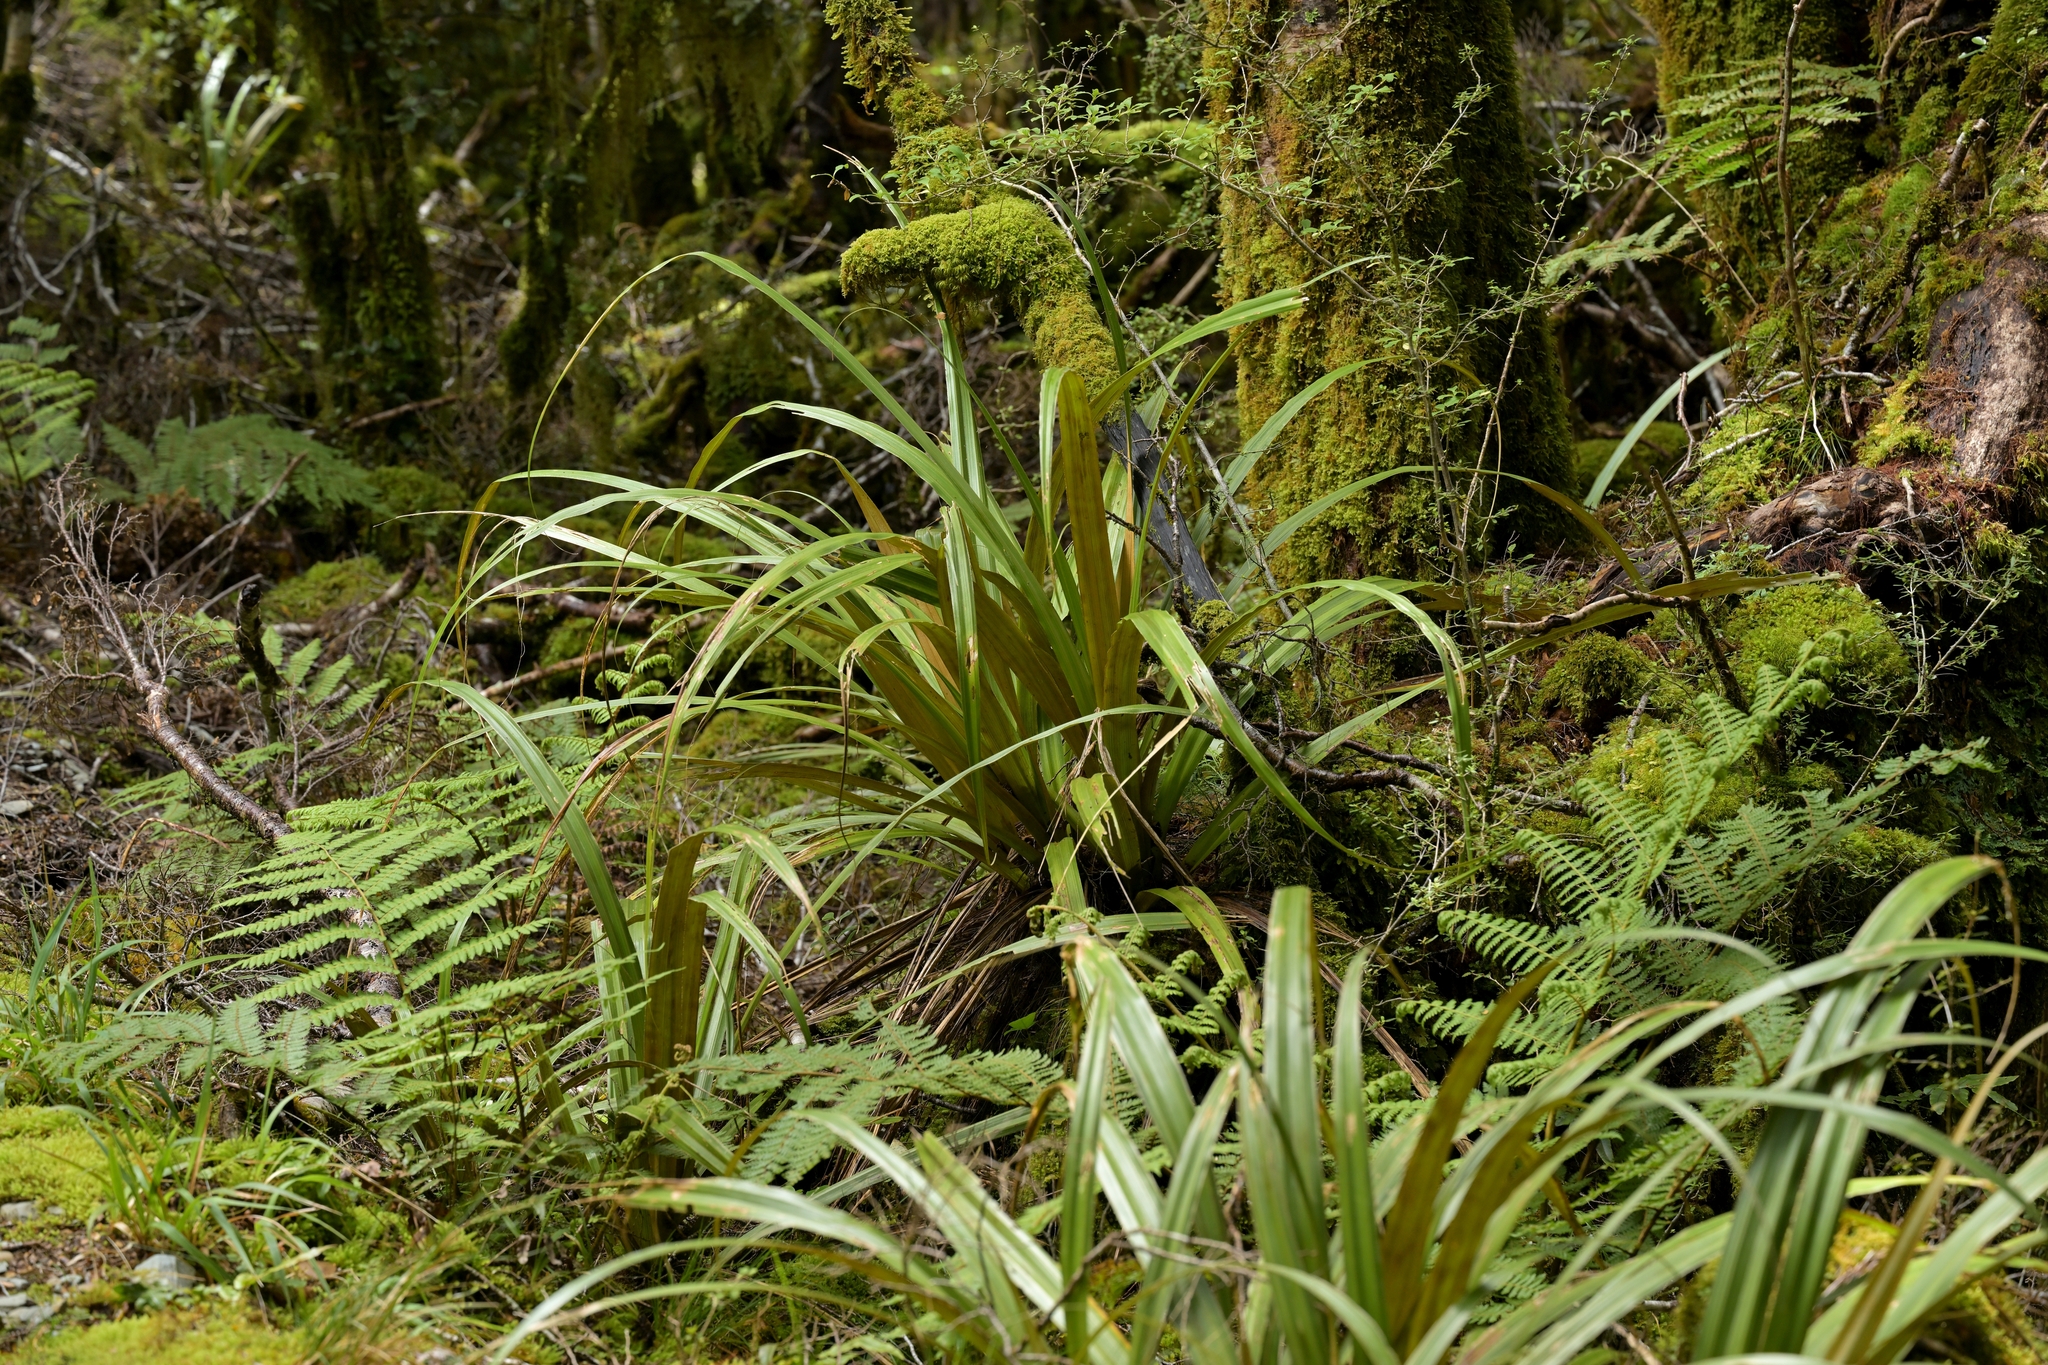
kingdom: Plantae
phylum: Tracheophyta
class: Liliopsida
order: Asparagales
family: Asteliaceae
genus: Astelia
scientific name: Astelia nivicola
